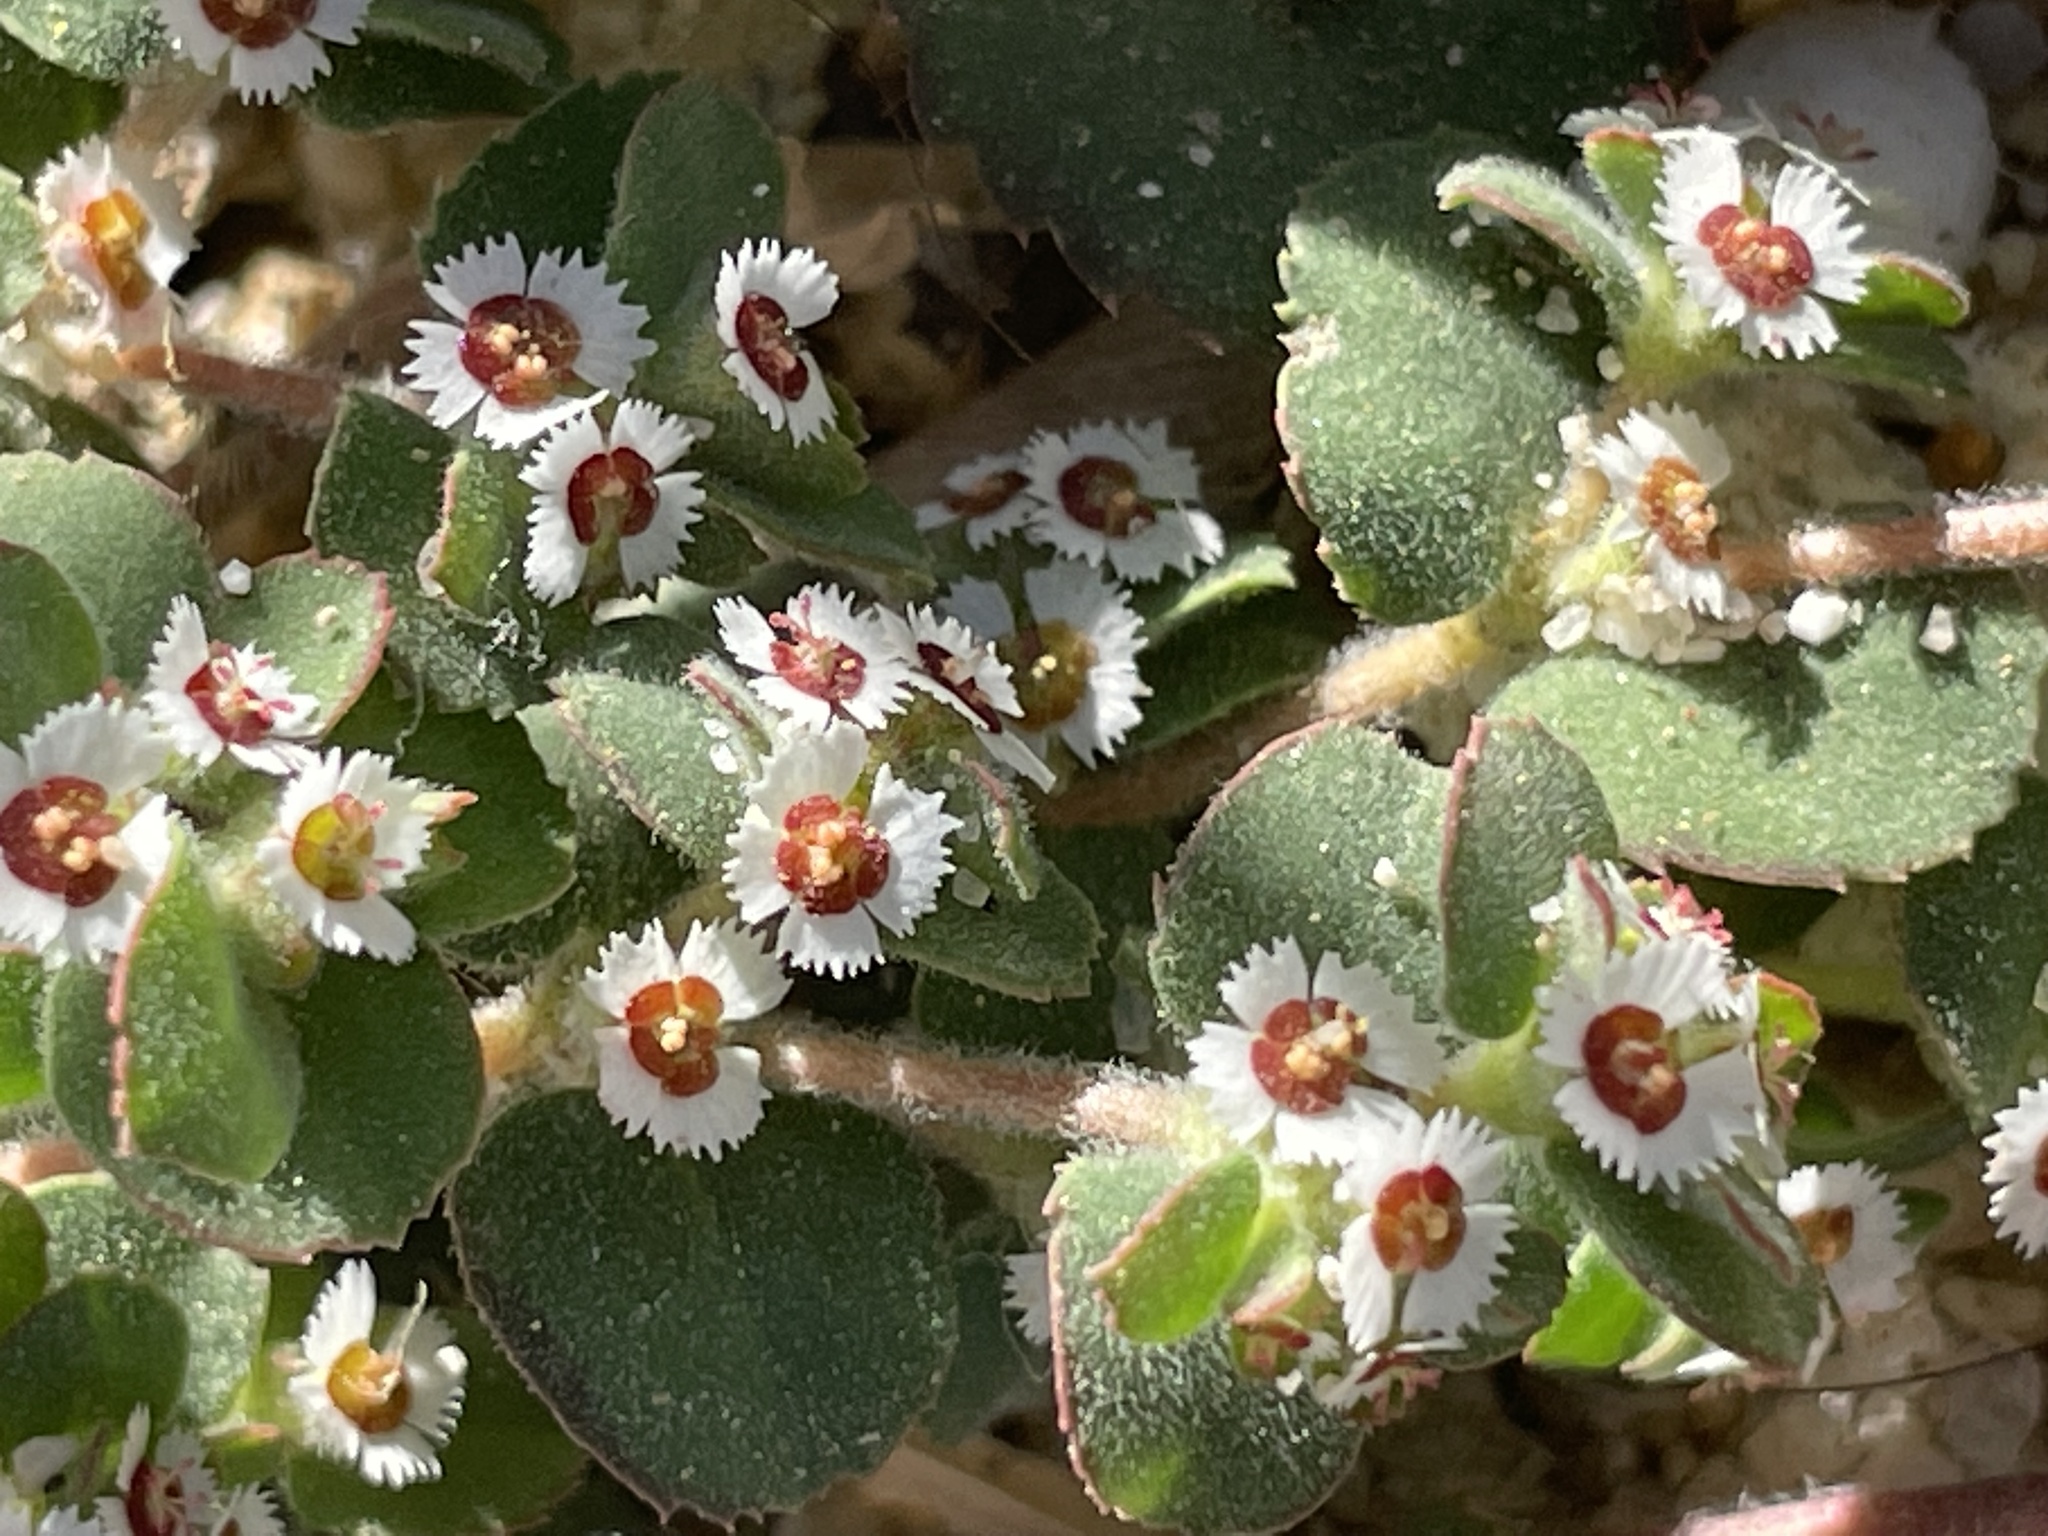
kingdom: Plantae
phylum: Tracheophyta
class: Magnoliopsida
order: Malpighiales
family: Euphorbiaceae
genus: Euphorbia
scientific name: Euphorbia leucophylla
